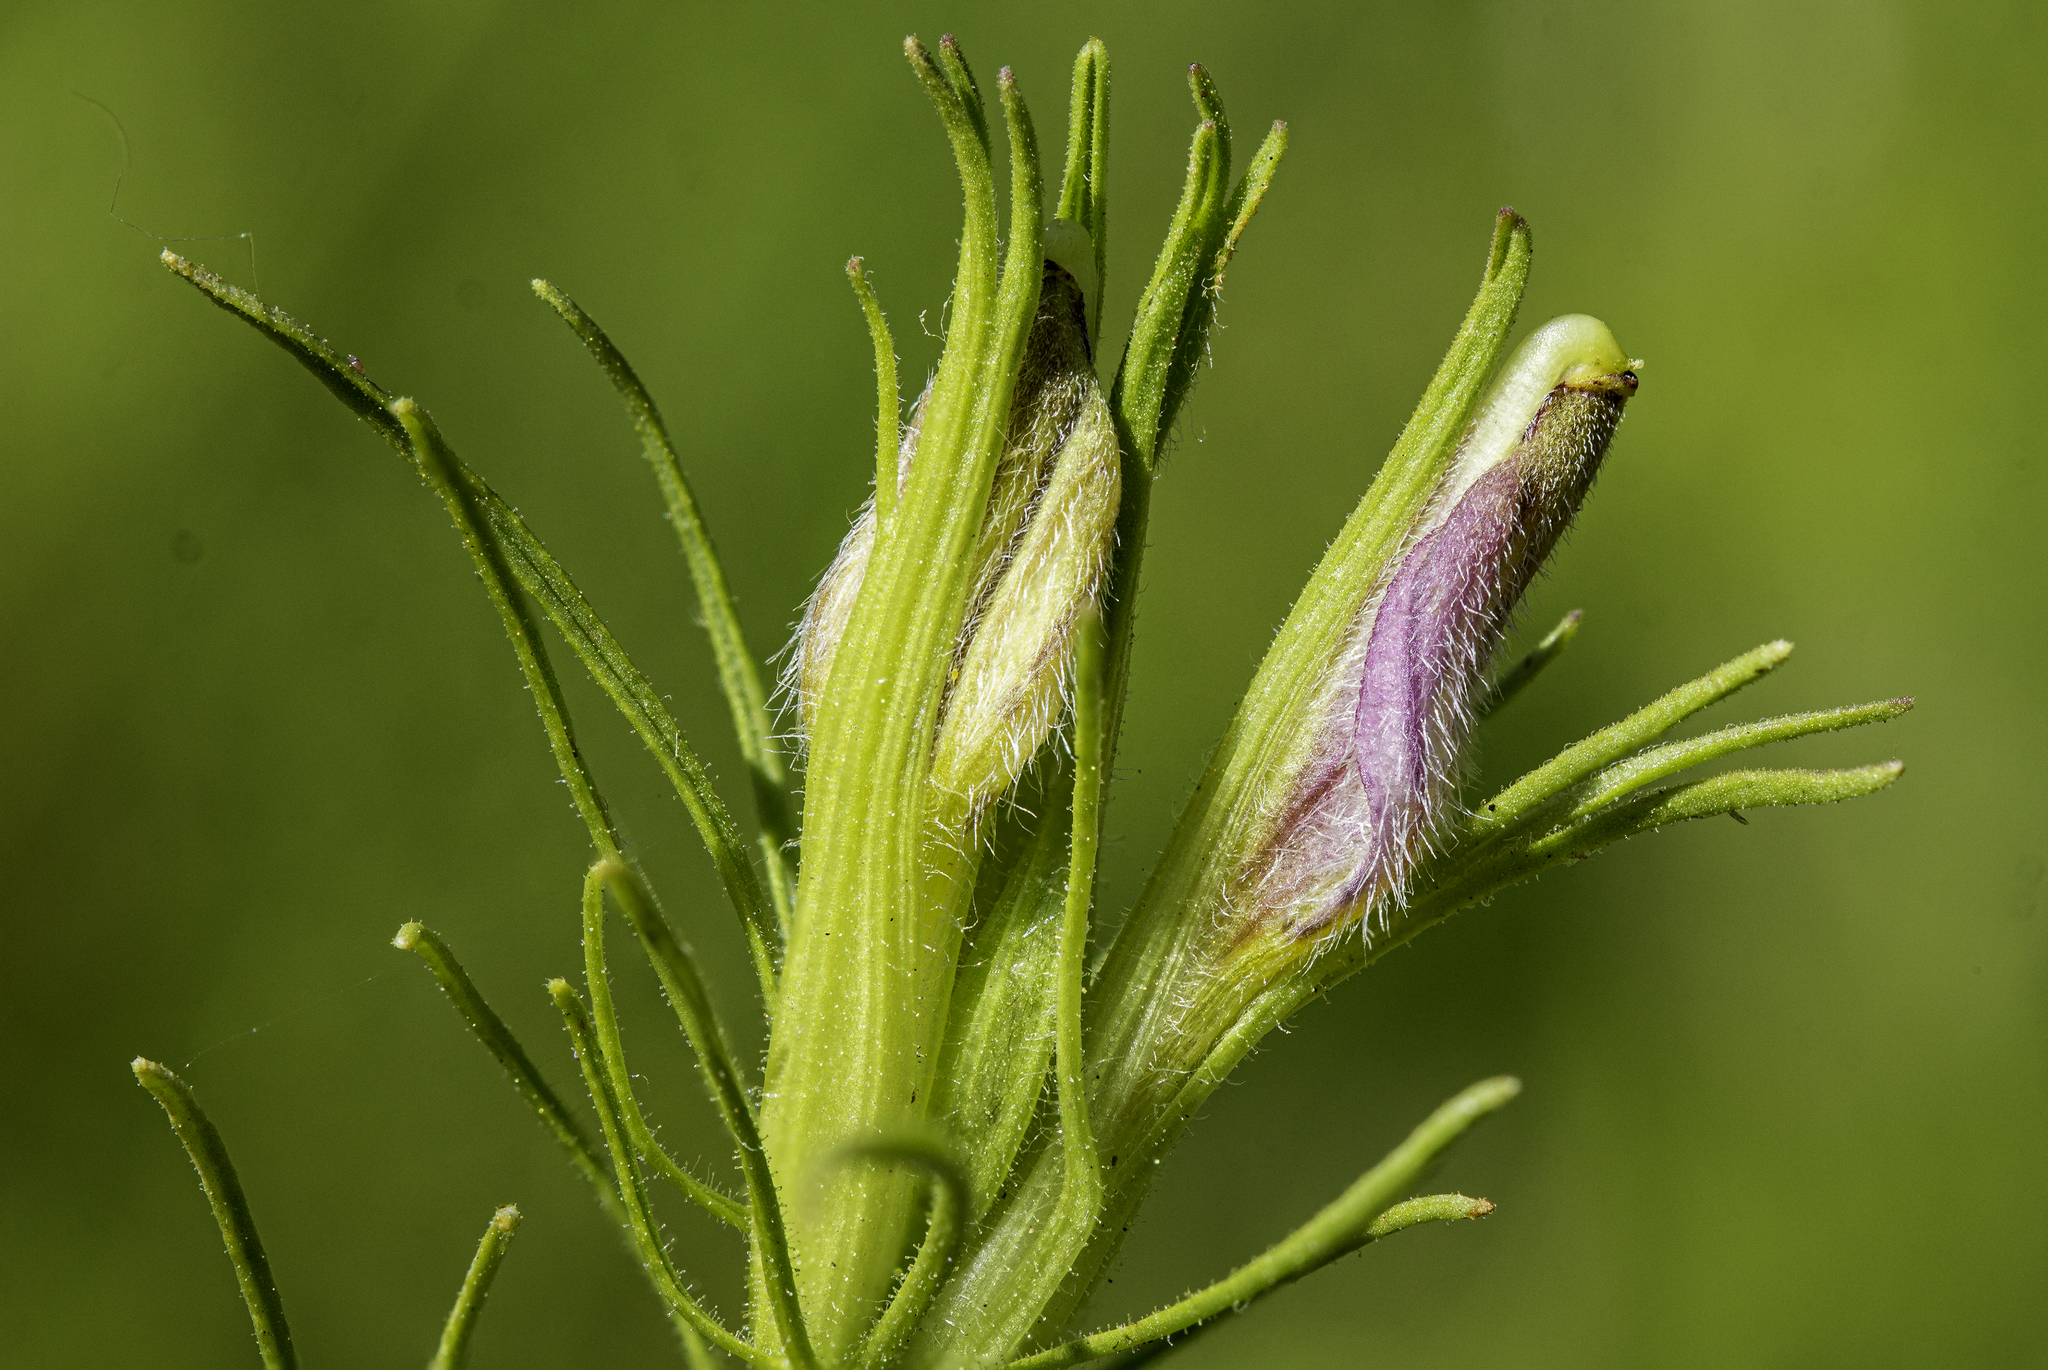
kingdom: Plantae
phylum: Tracheophyta
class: Magnoliopsida
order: Lamiales
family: Orobanchaceae
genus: Cordylanthus
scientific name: Cordylanthus wrightii
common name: Wright's birdsbeak
